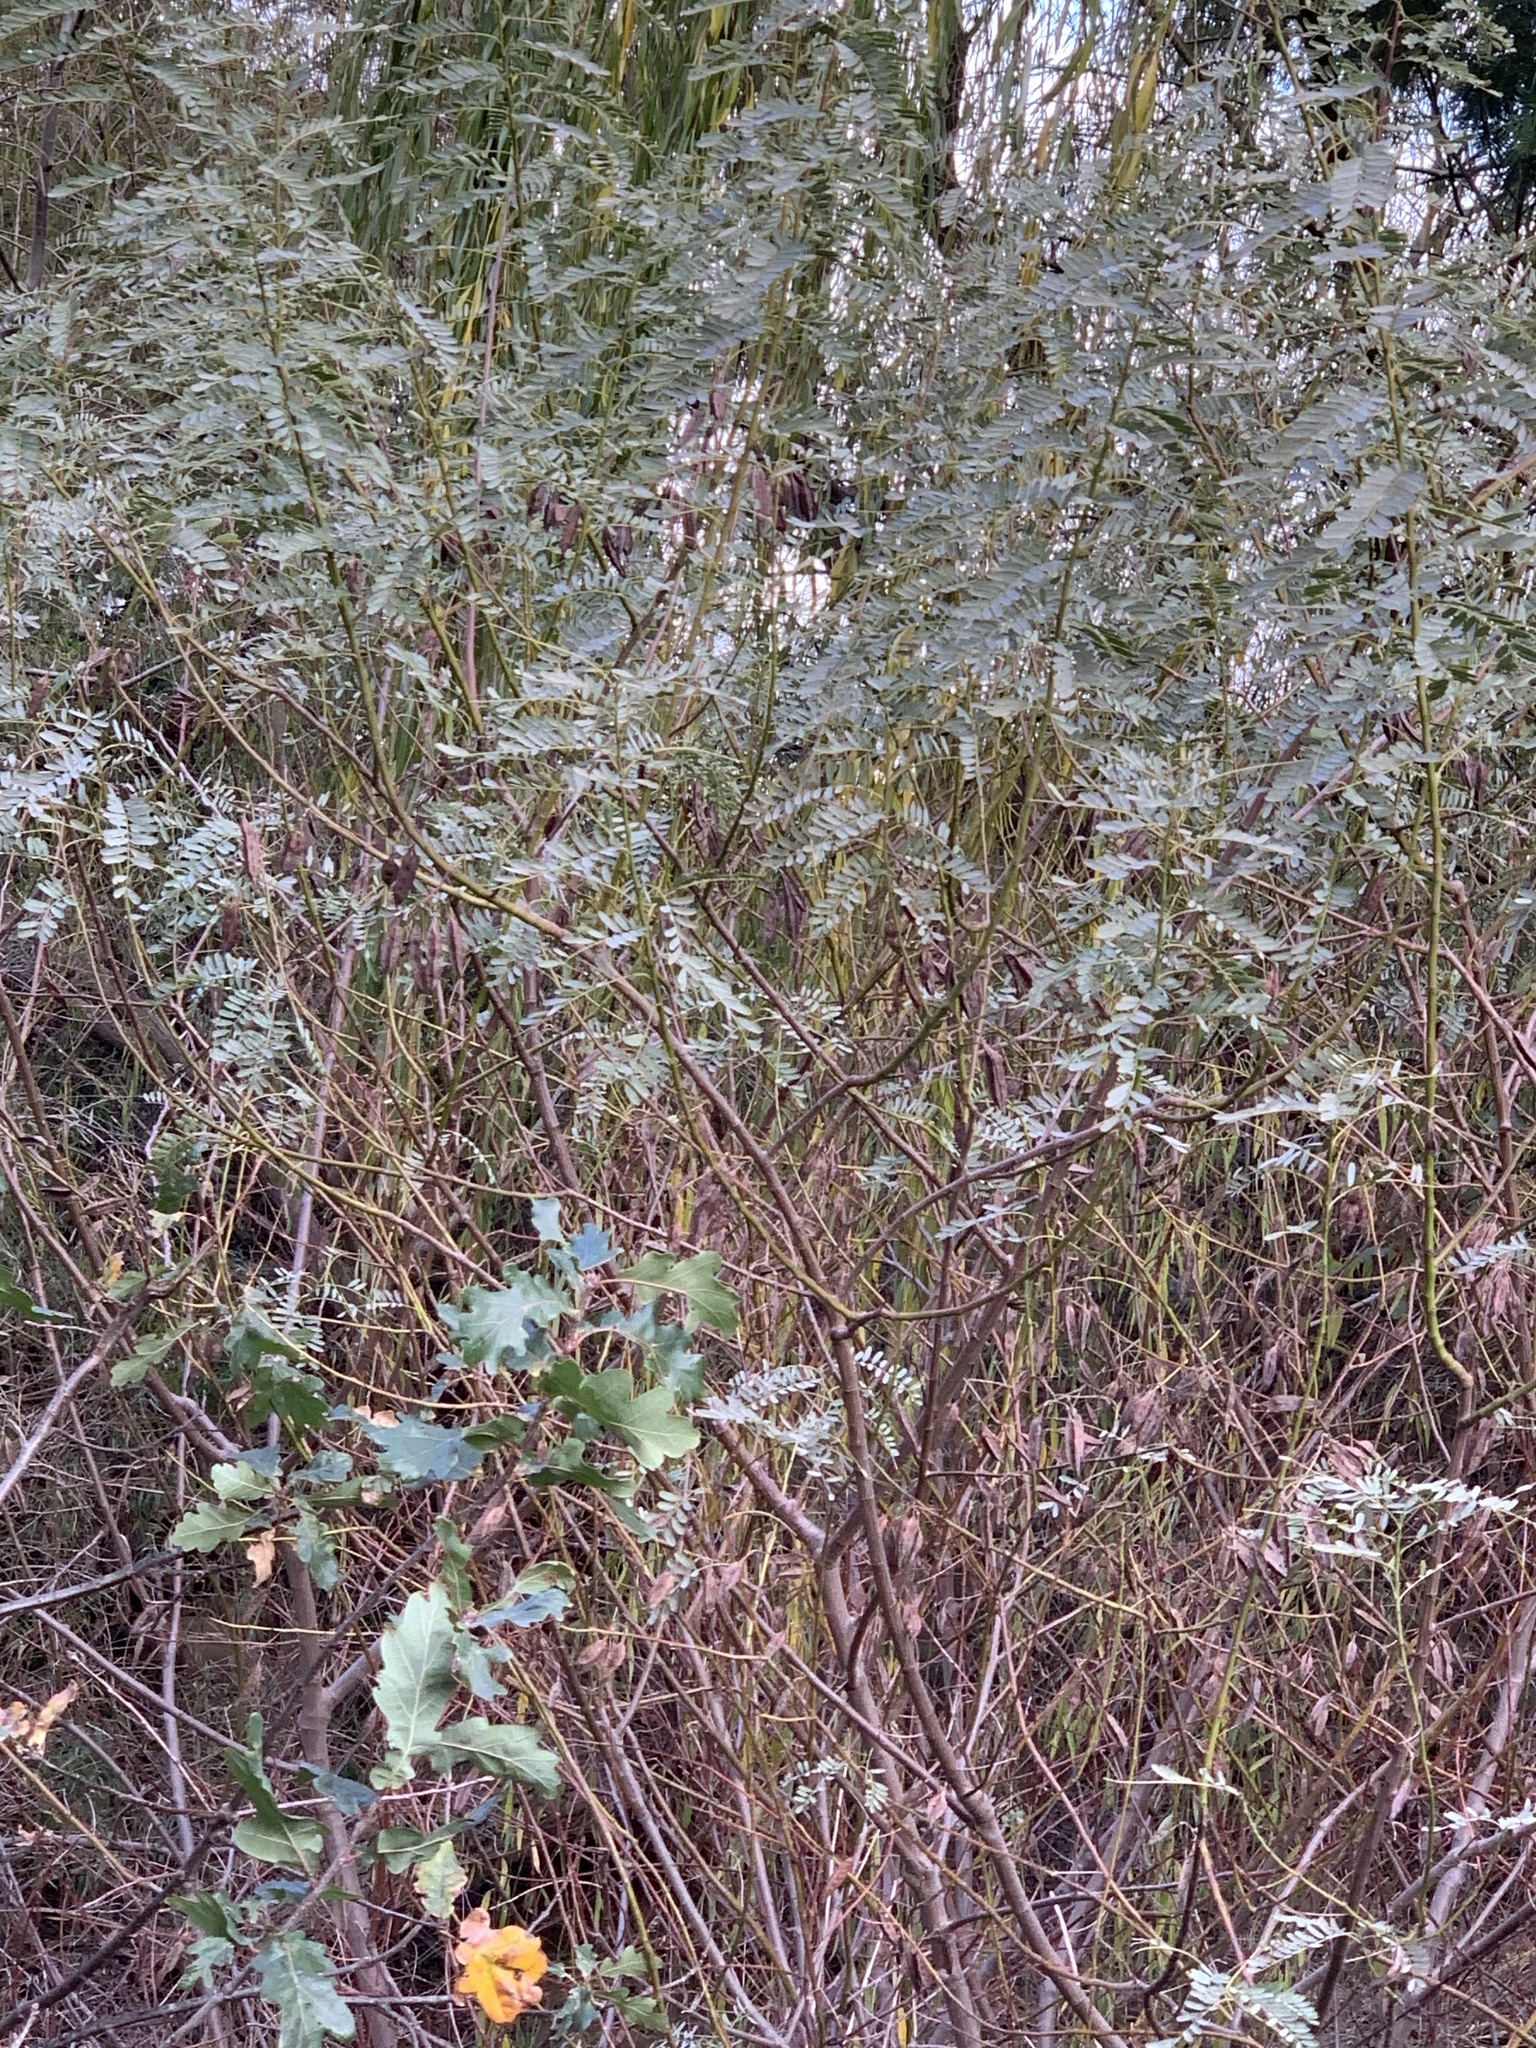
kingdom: Plantae
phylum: Tracheophyta
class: Magnoliopsida
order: Fabales
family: Fabaceae
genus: Sesbania
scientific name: Sesbania punicea
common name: Rattlebox
